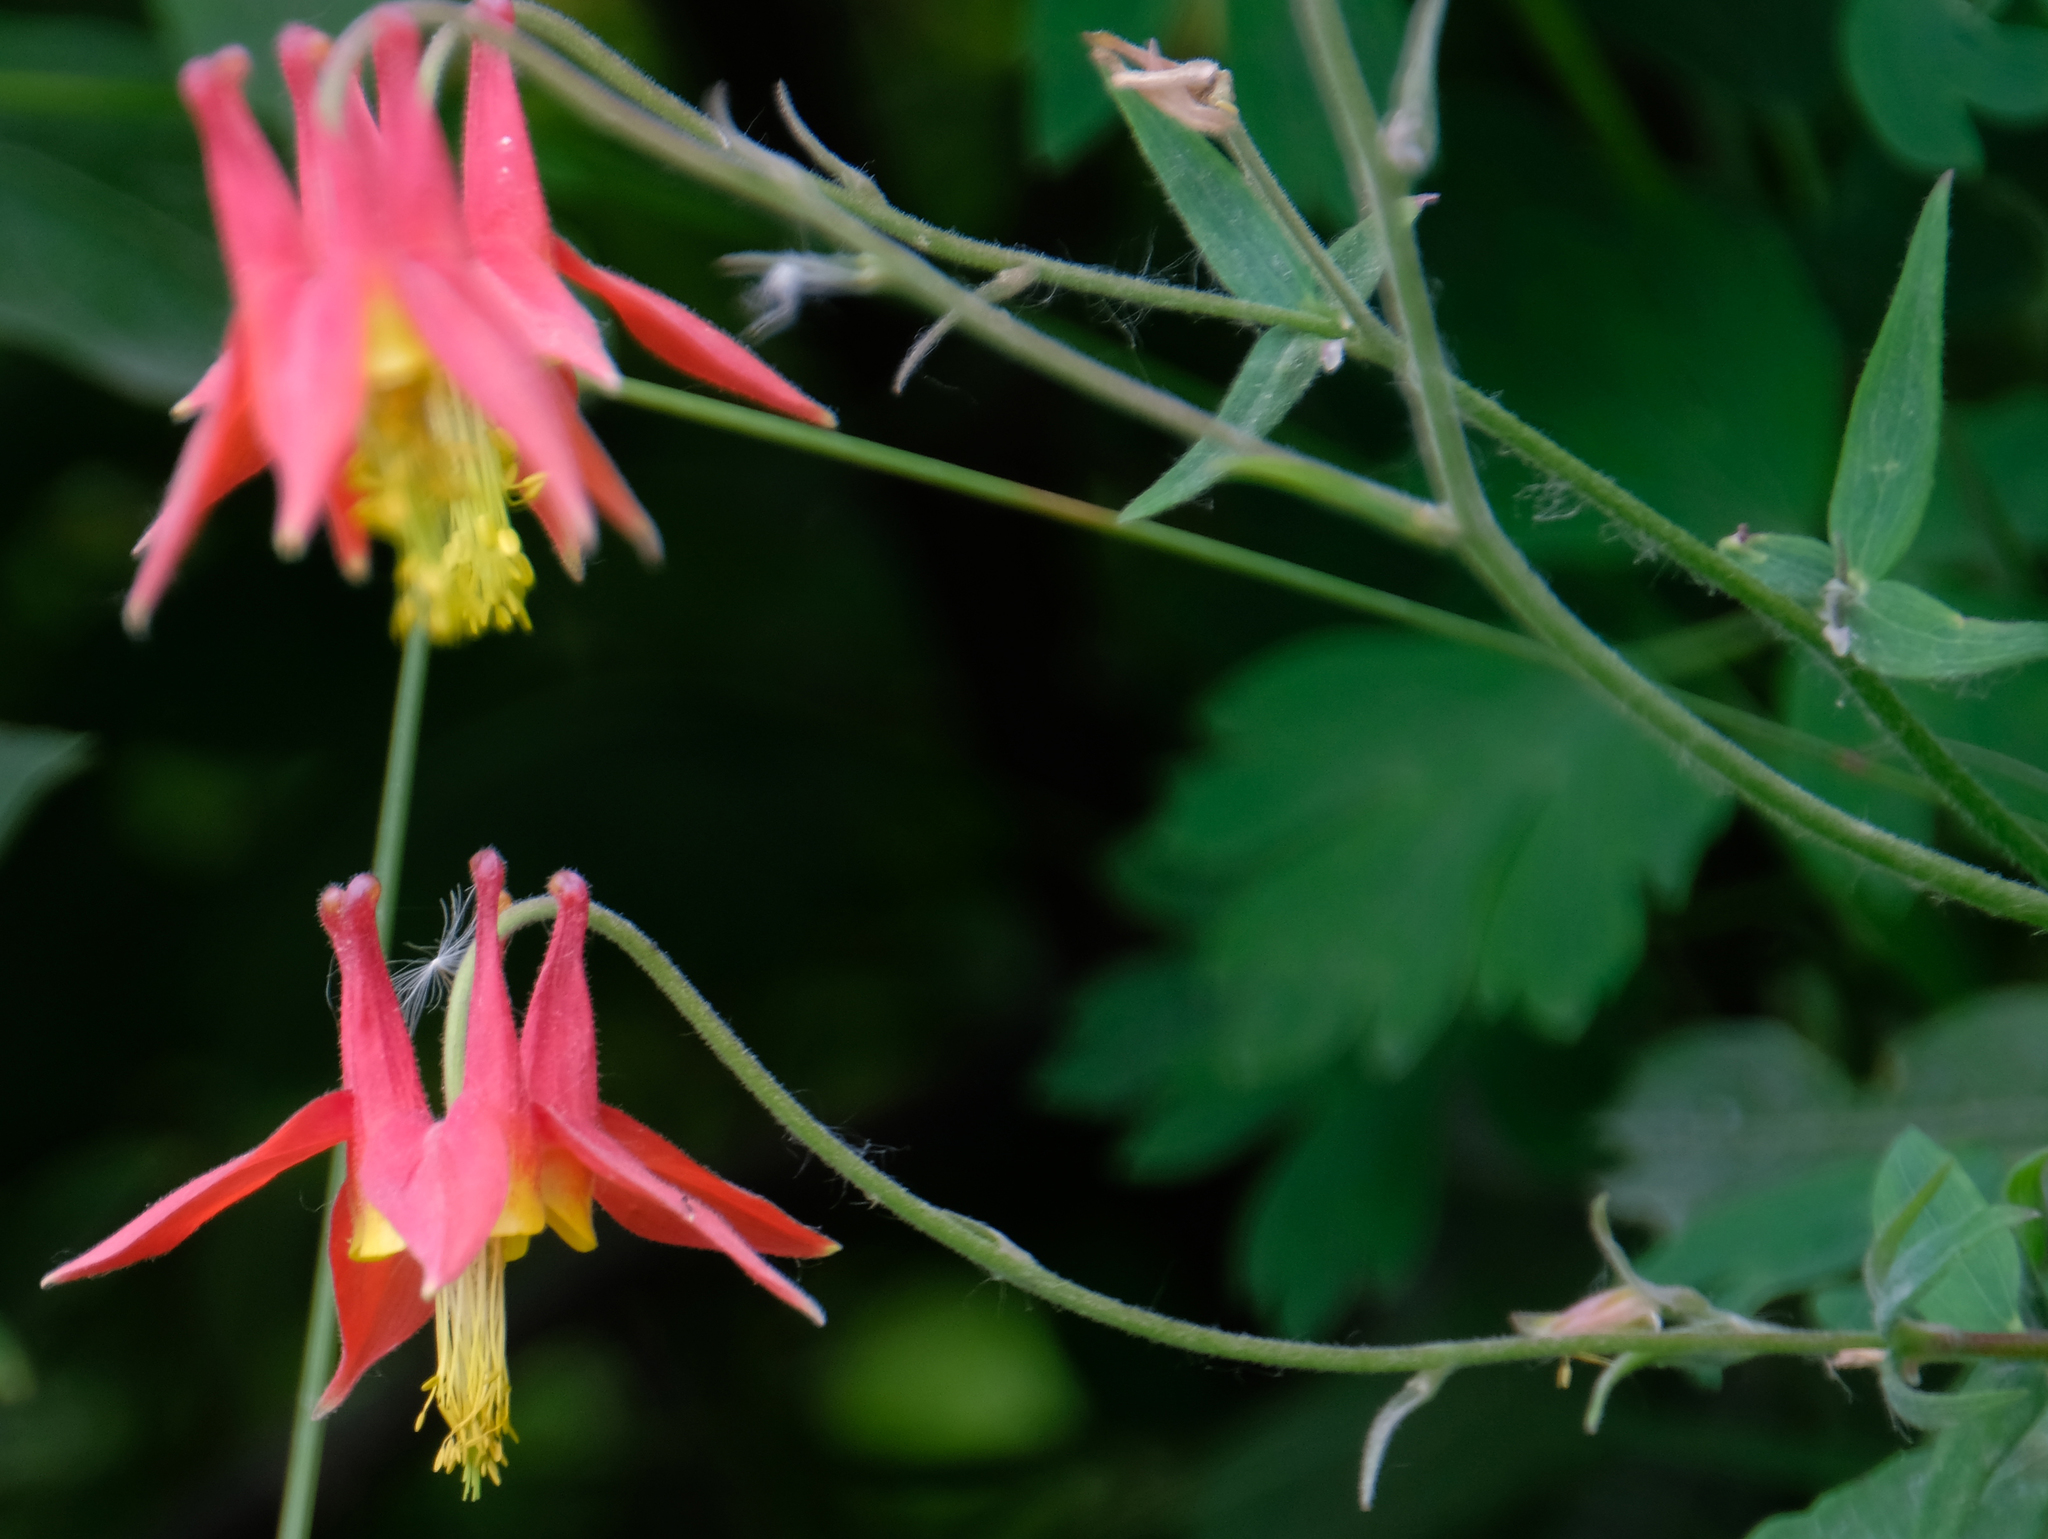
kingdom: Plantae
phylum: Tracheophyta
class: Magnoliopsida
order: Ranunculales
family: Ranunculaceae
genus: Aquilegia
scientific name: Aquilegia formosa
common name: Sitka columbine
